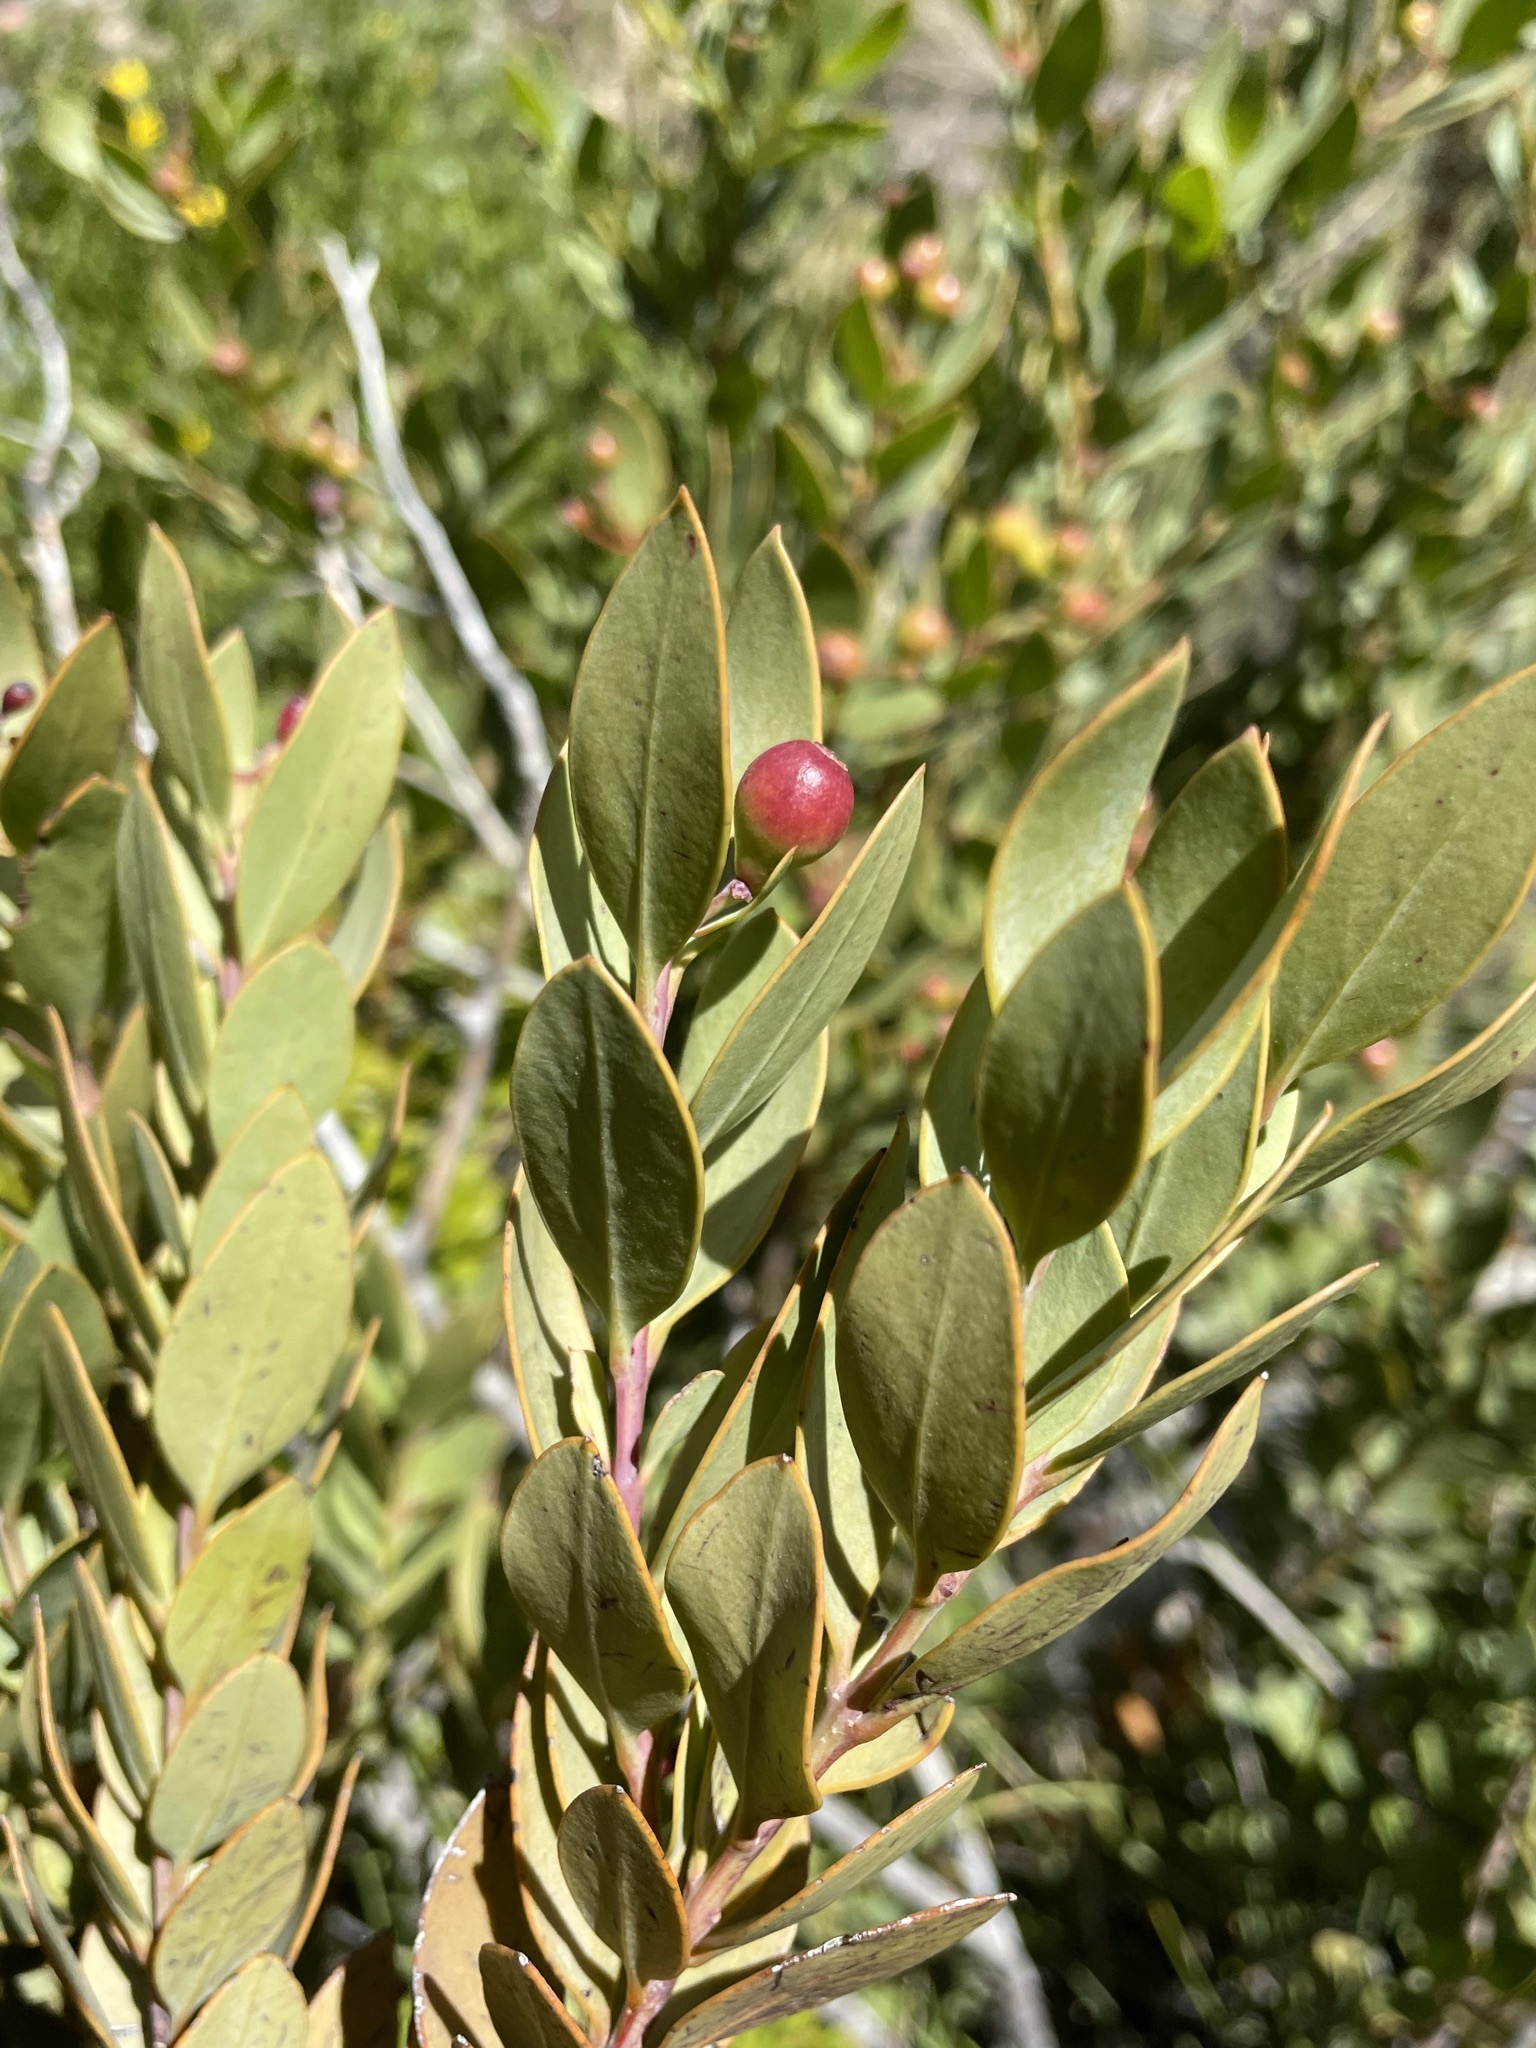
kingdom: Plantae
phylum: Tracheophyta
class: Magnoliopsida
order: Santalales
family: Santalaceae
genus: Osyris
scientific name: Osyris compressa
